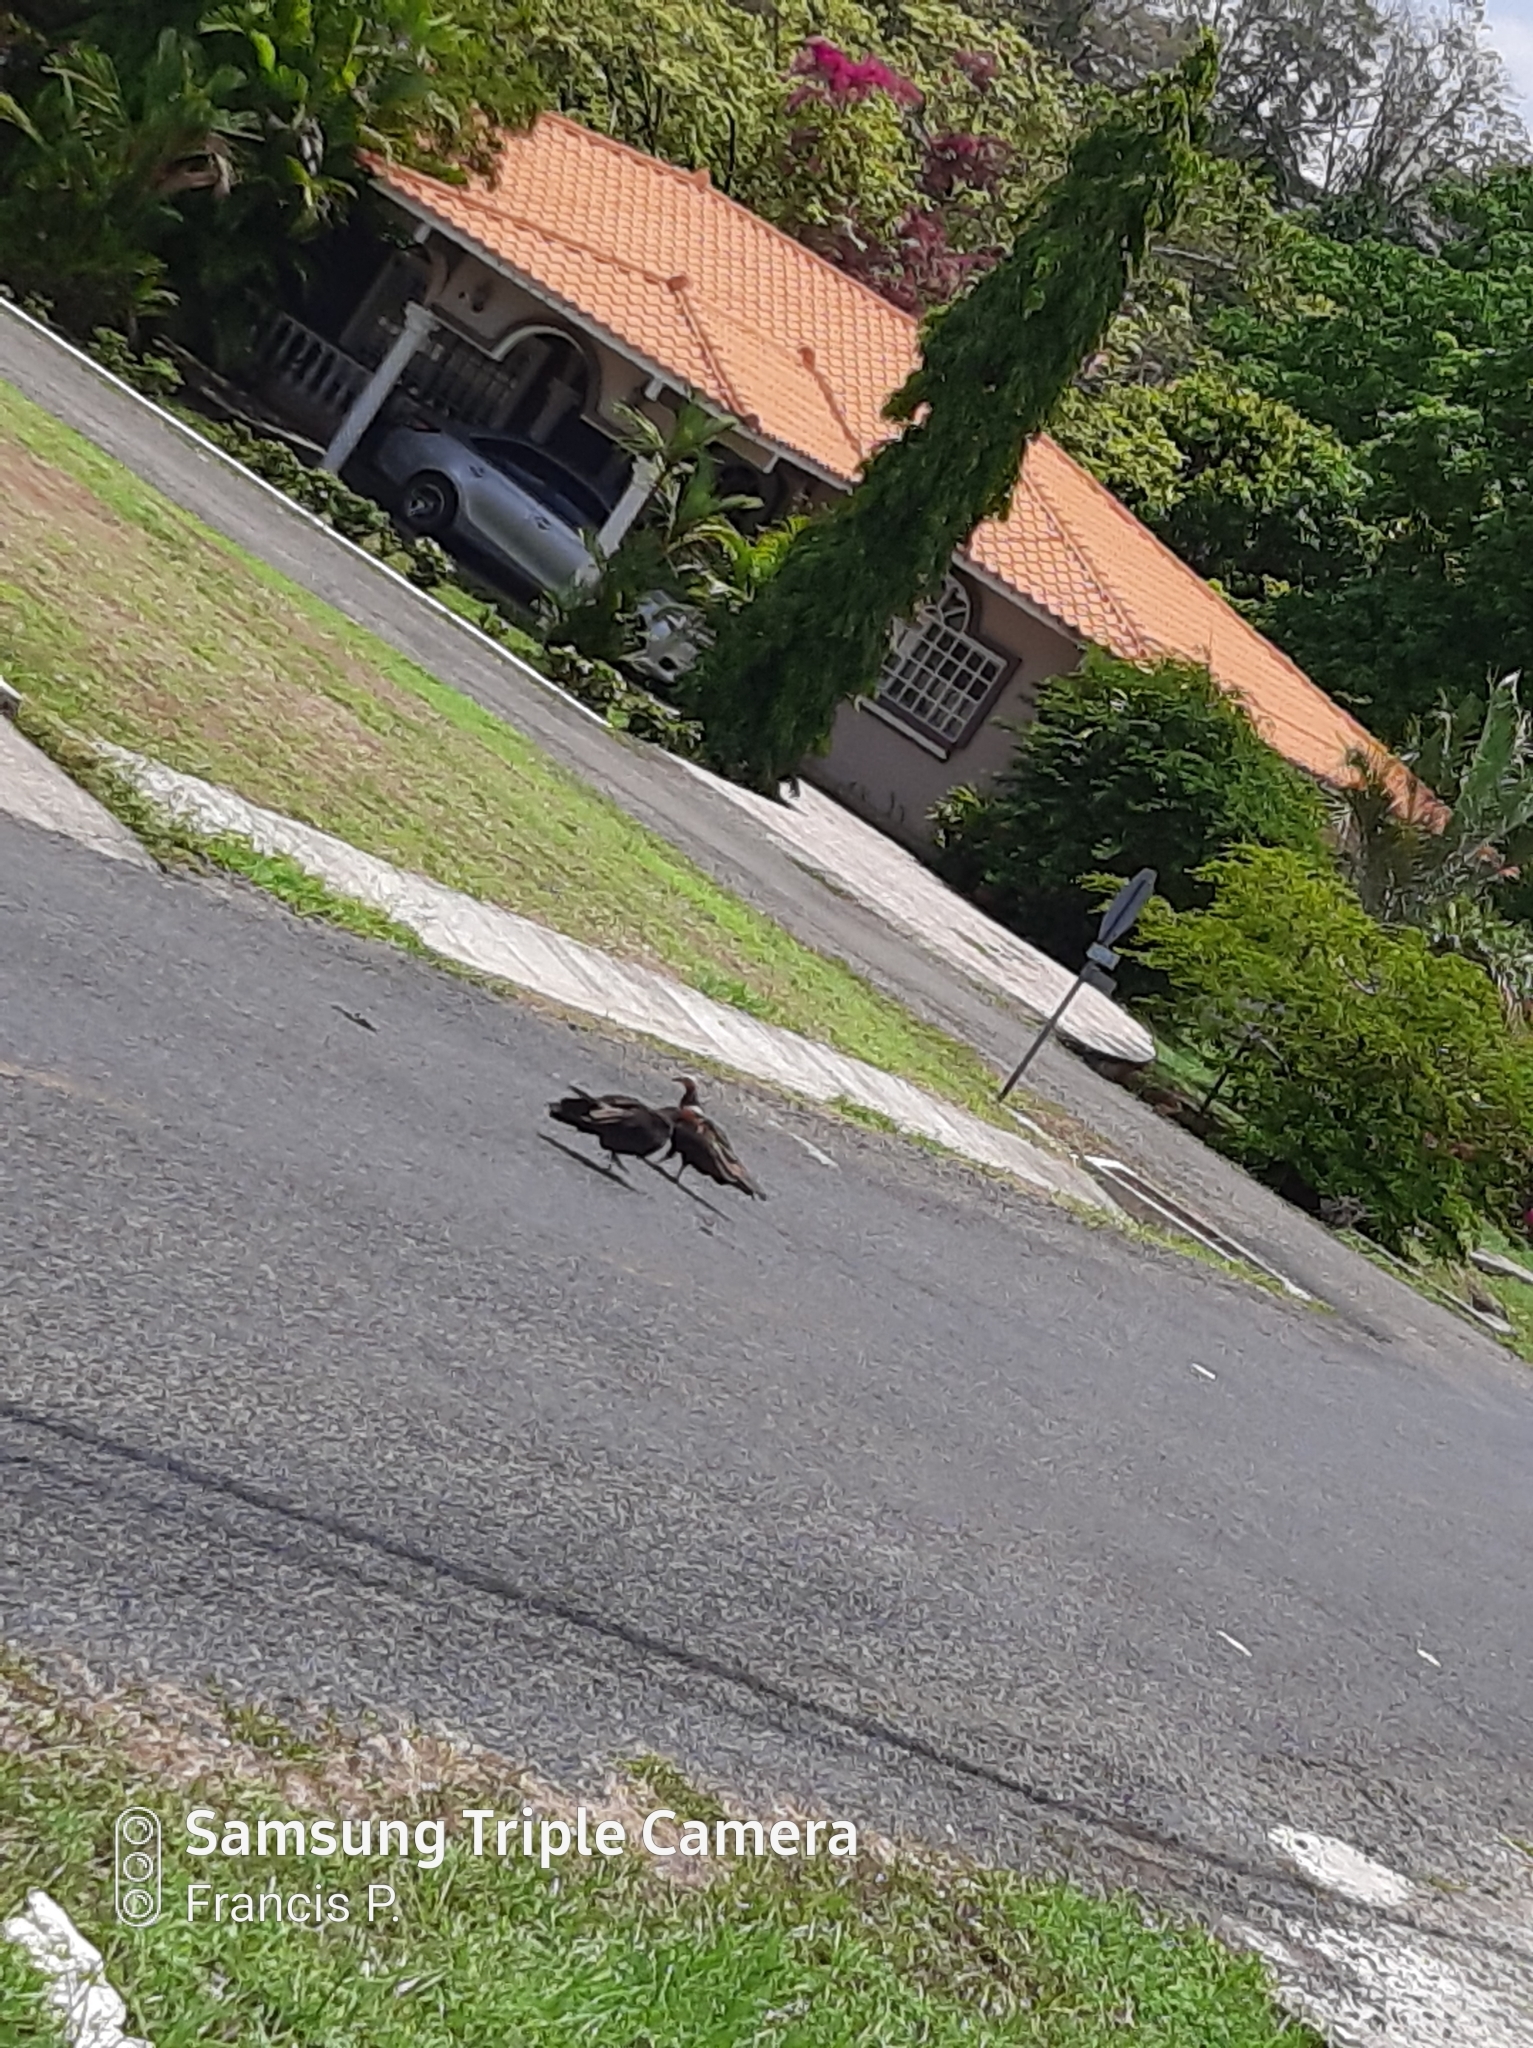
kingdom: Animalia
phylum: Chordata
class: Aves
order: Accipitriformes
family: Cathartidae
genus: Cathartes
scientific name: Cathartes aura
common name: Turkey vulture
